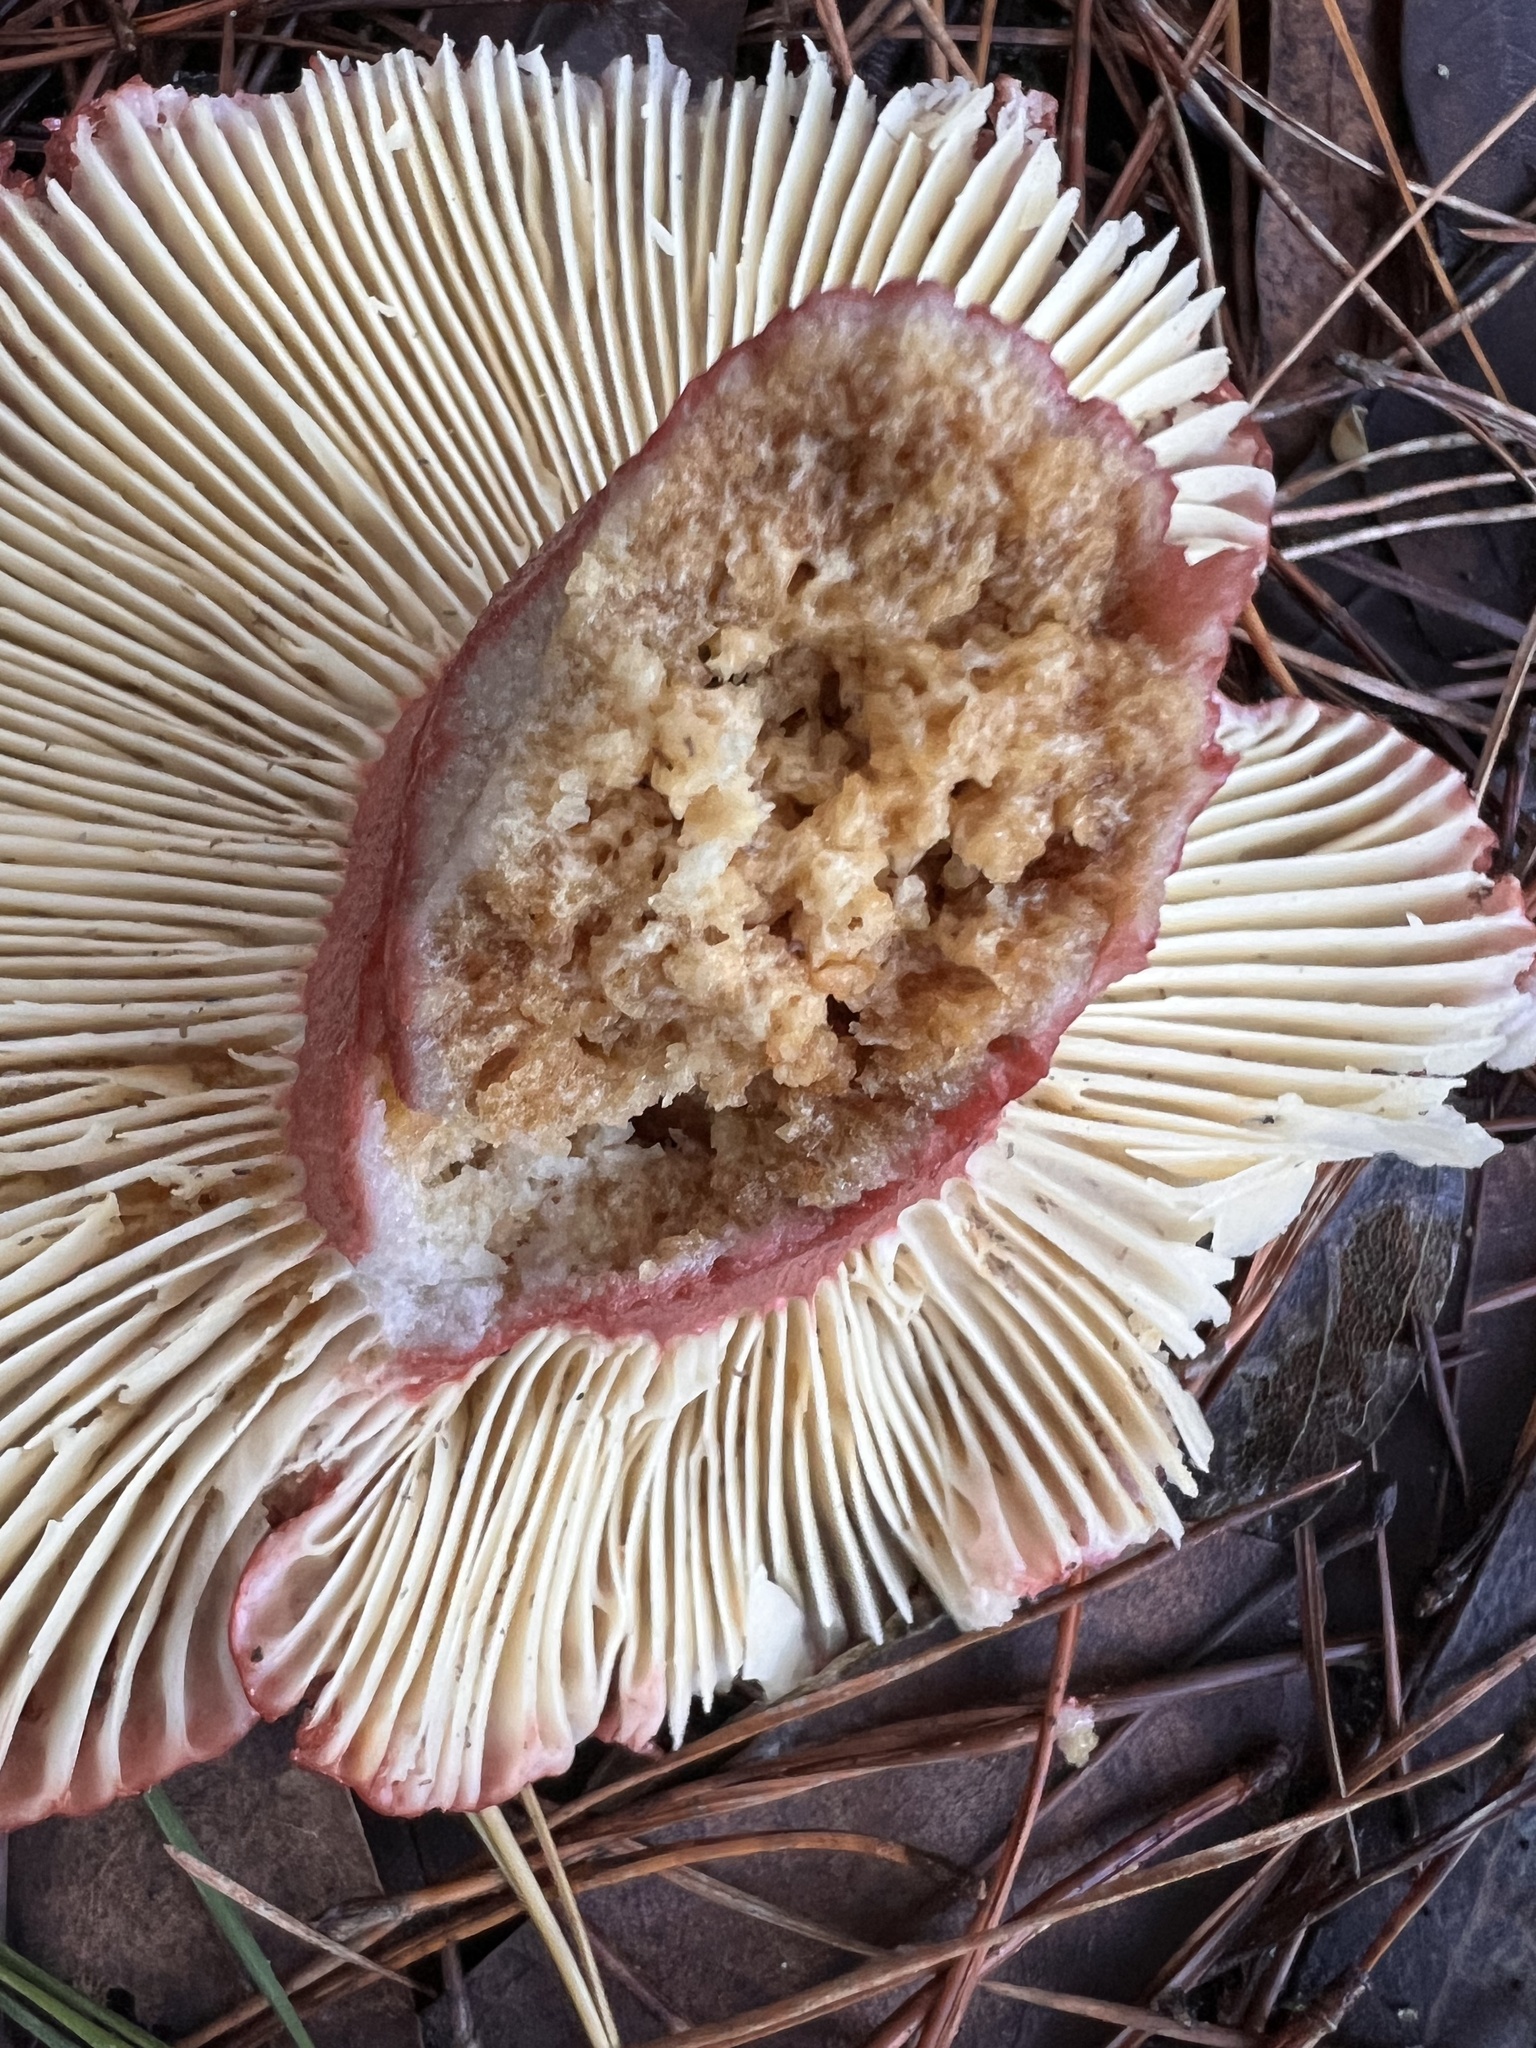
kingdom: Fungi
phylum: Basidiomycota
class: Agaricomycetes
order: Russulales
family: Russulaceae
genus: Russula
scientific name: Russula rhodocephala
